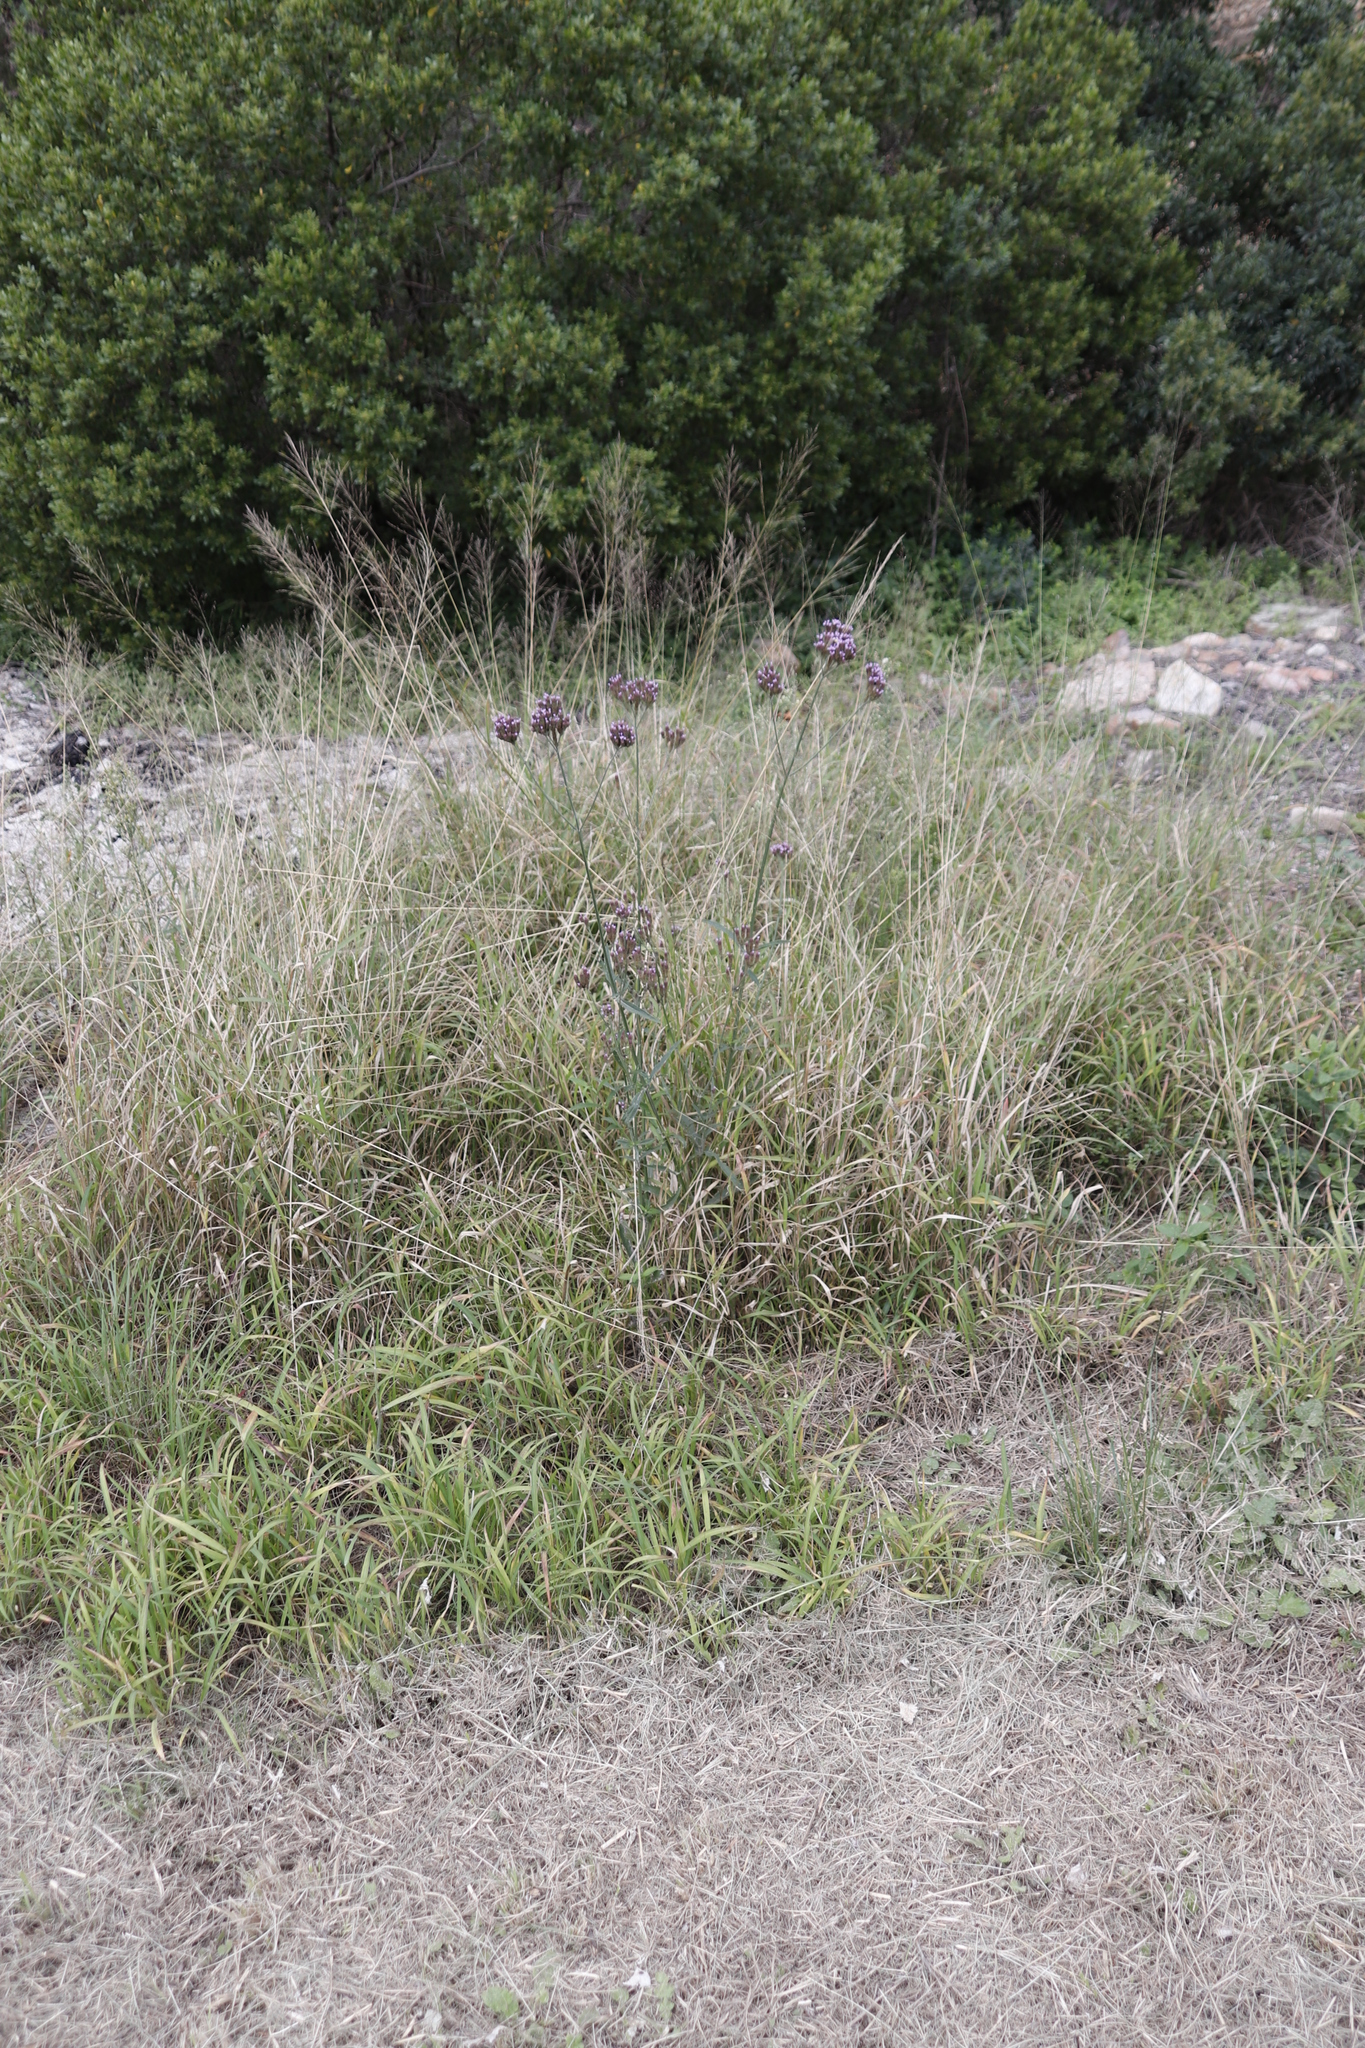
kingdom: Plantae
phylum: Tracheophyta
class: Magnoliopsida
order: Lamiales
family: Verbenaceae
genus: Verbena
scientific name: Verbena bonariensis
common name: Purpletop vervain
